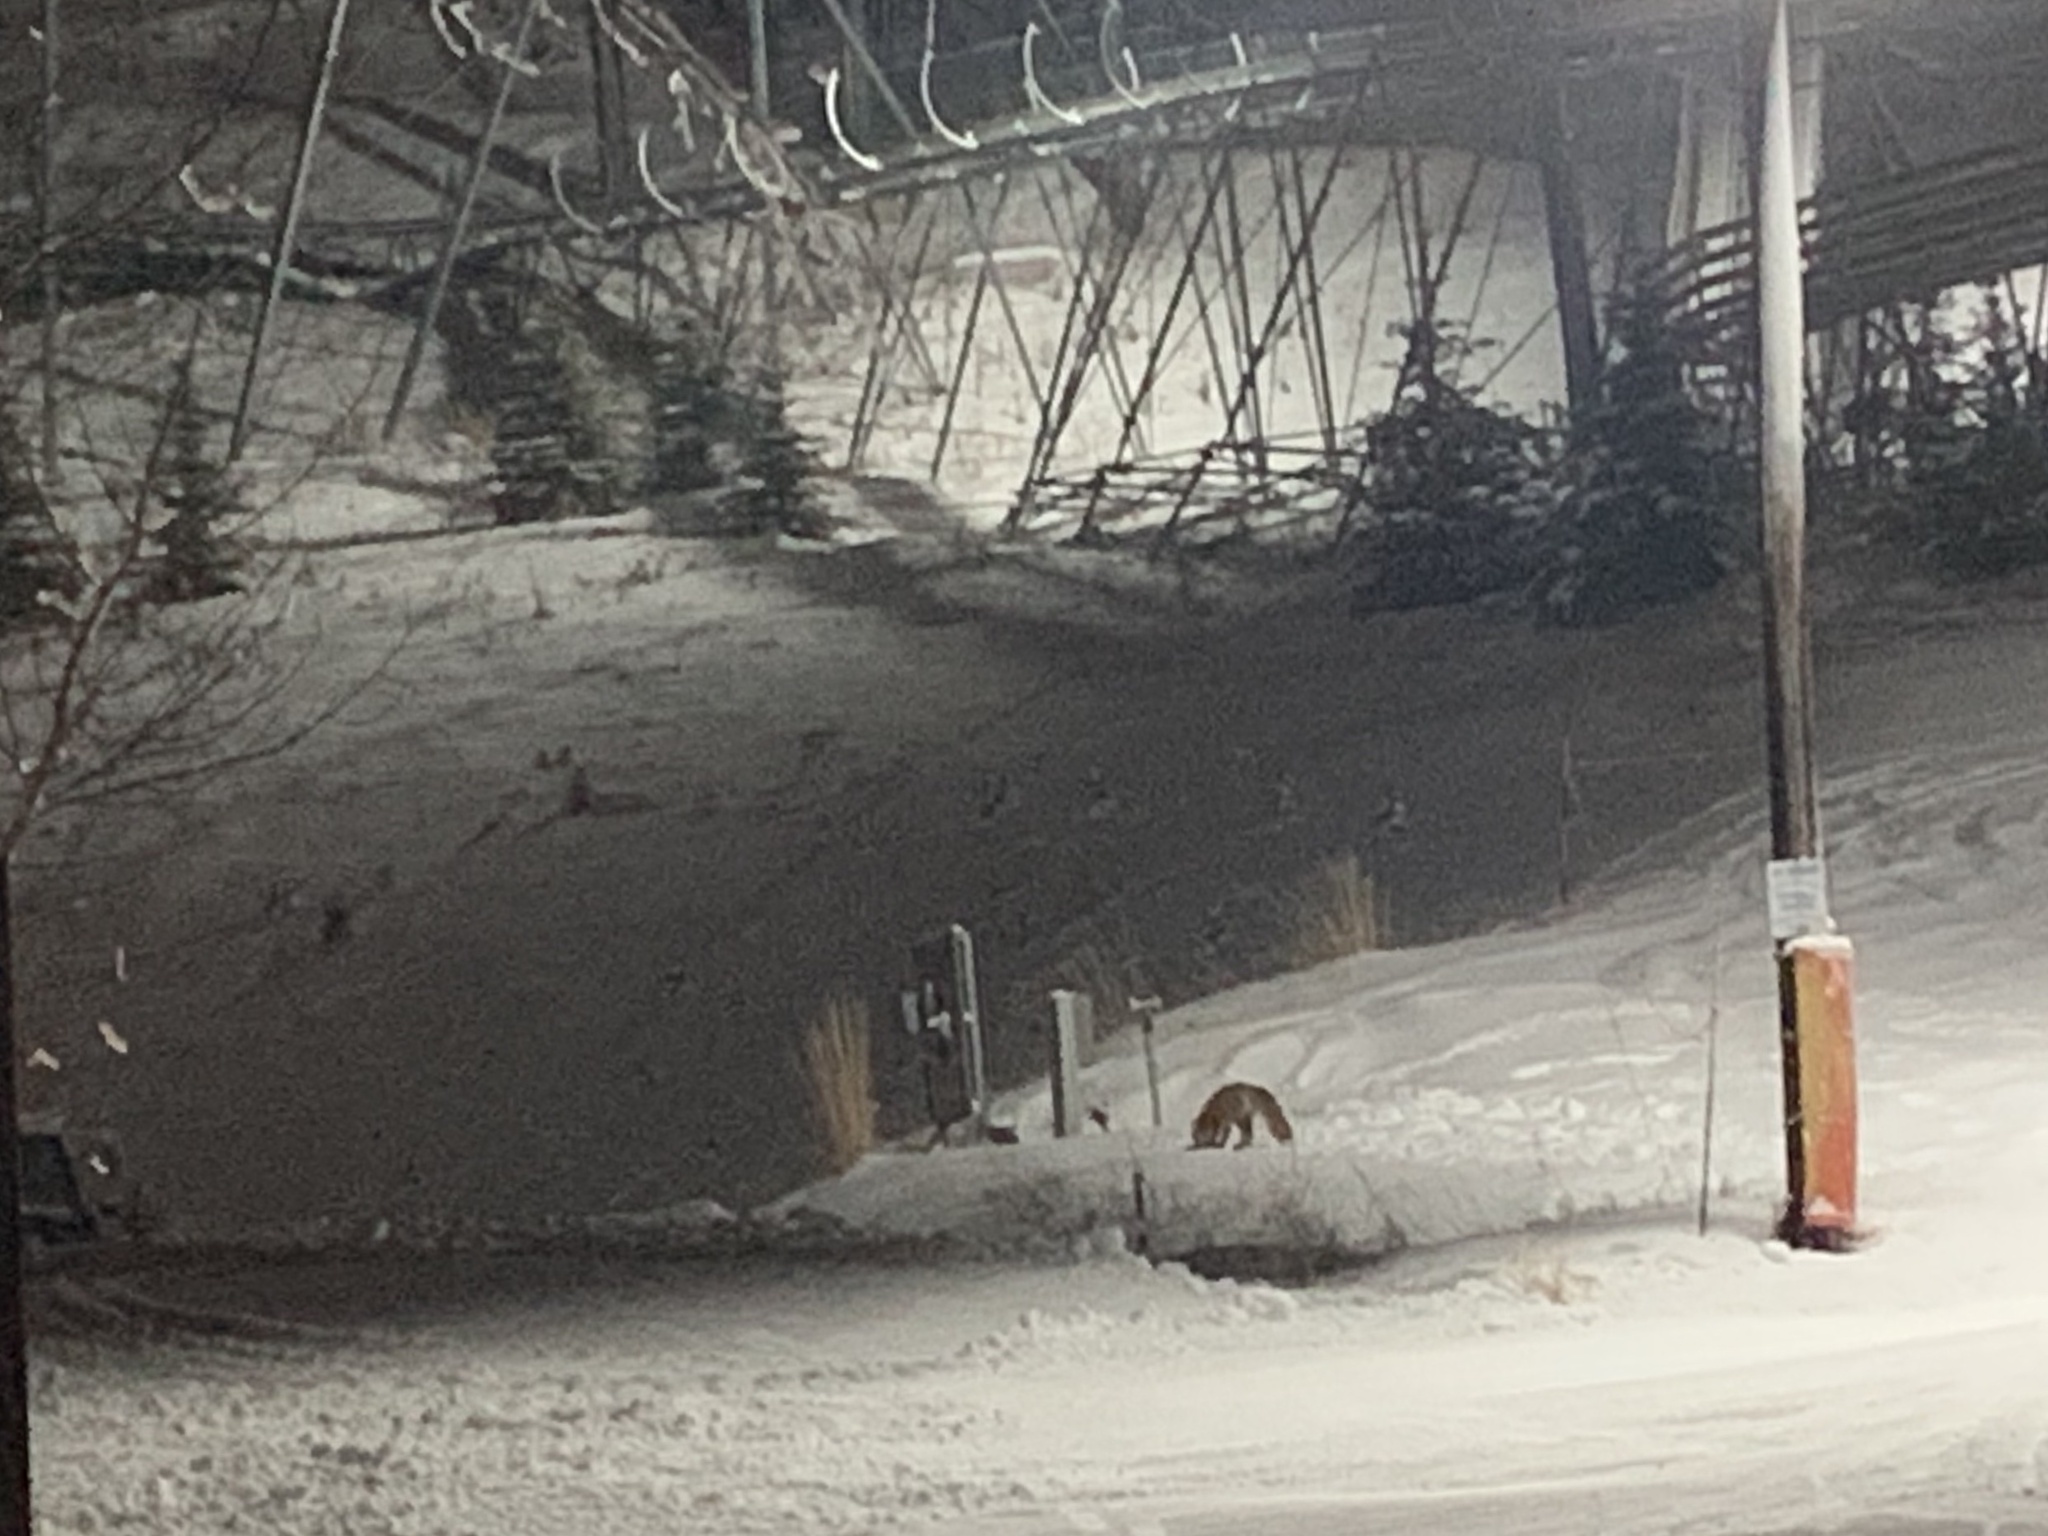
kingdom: Animalia
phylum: Chordata
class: Mammalia
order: Carnivora
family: Canidae
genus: Vulpes
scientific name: Vulpes vulpes
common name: Red fox
